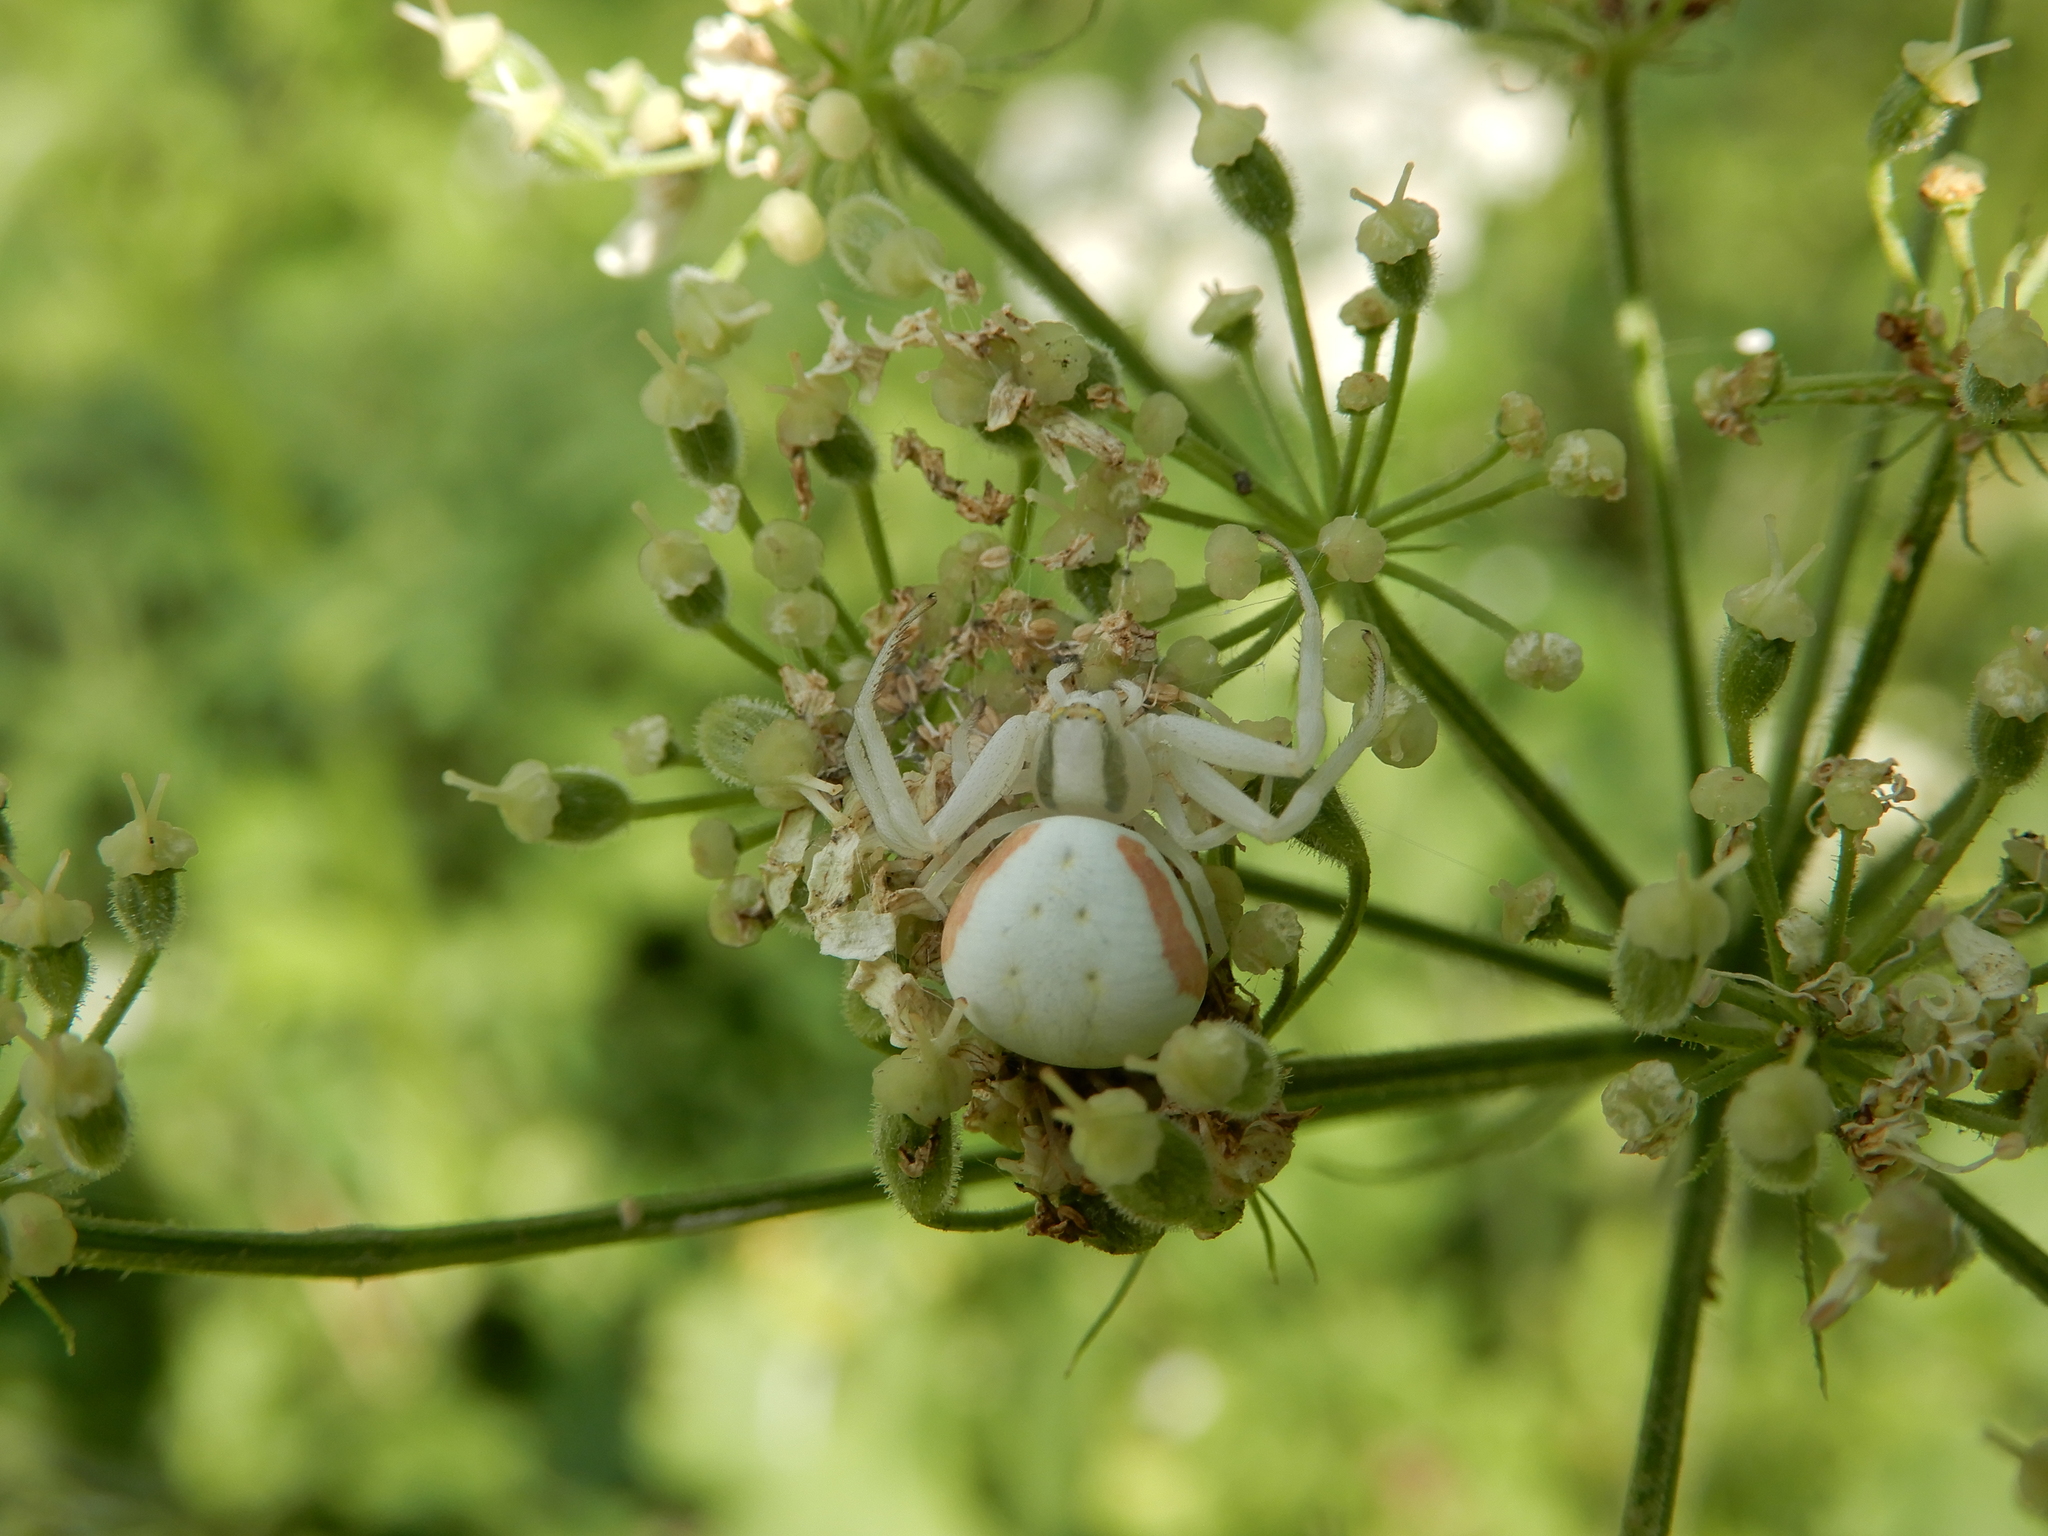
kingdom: Animalia
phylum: Arthropoda
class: Arachnida
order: Araneae
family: Thomisidae
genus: Misumena
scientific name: Misumena vatia
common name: Goldenrod crab spider
